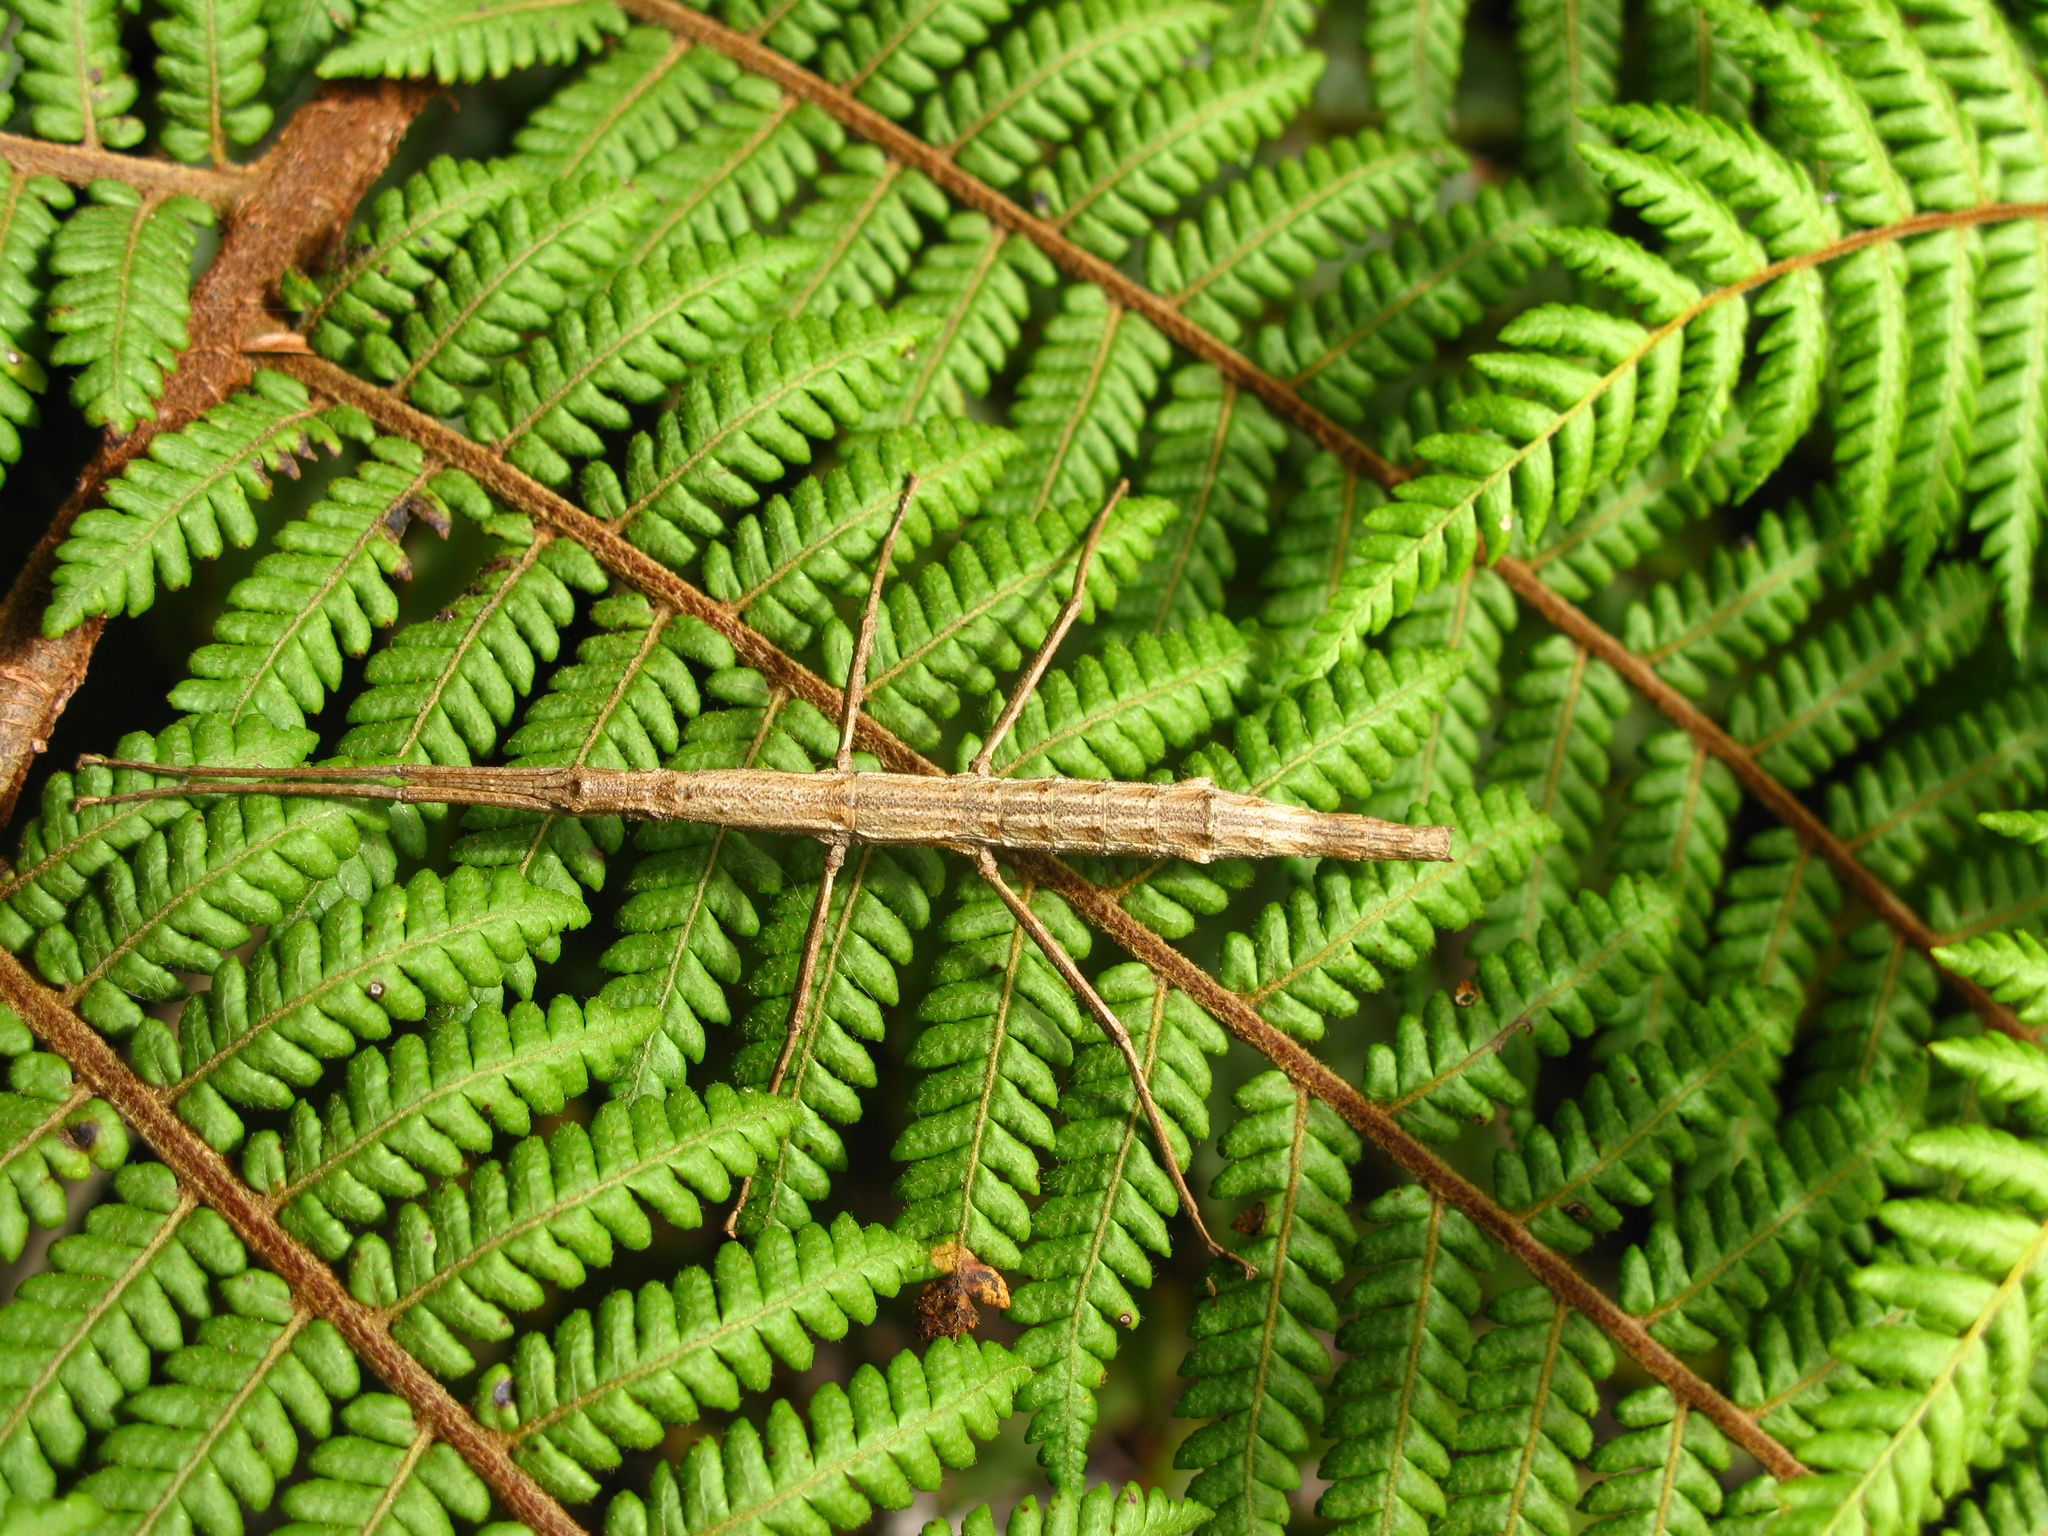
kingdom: Animalia
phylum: Arthropoda
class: Insecta
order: Phasmida
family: Phasmatidae
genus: Niveaphasma
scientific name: Niveaphasma annulatum
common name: Hutton's stick insect
